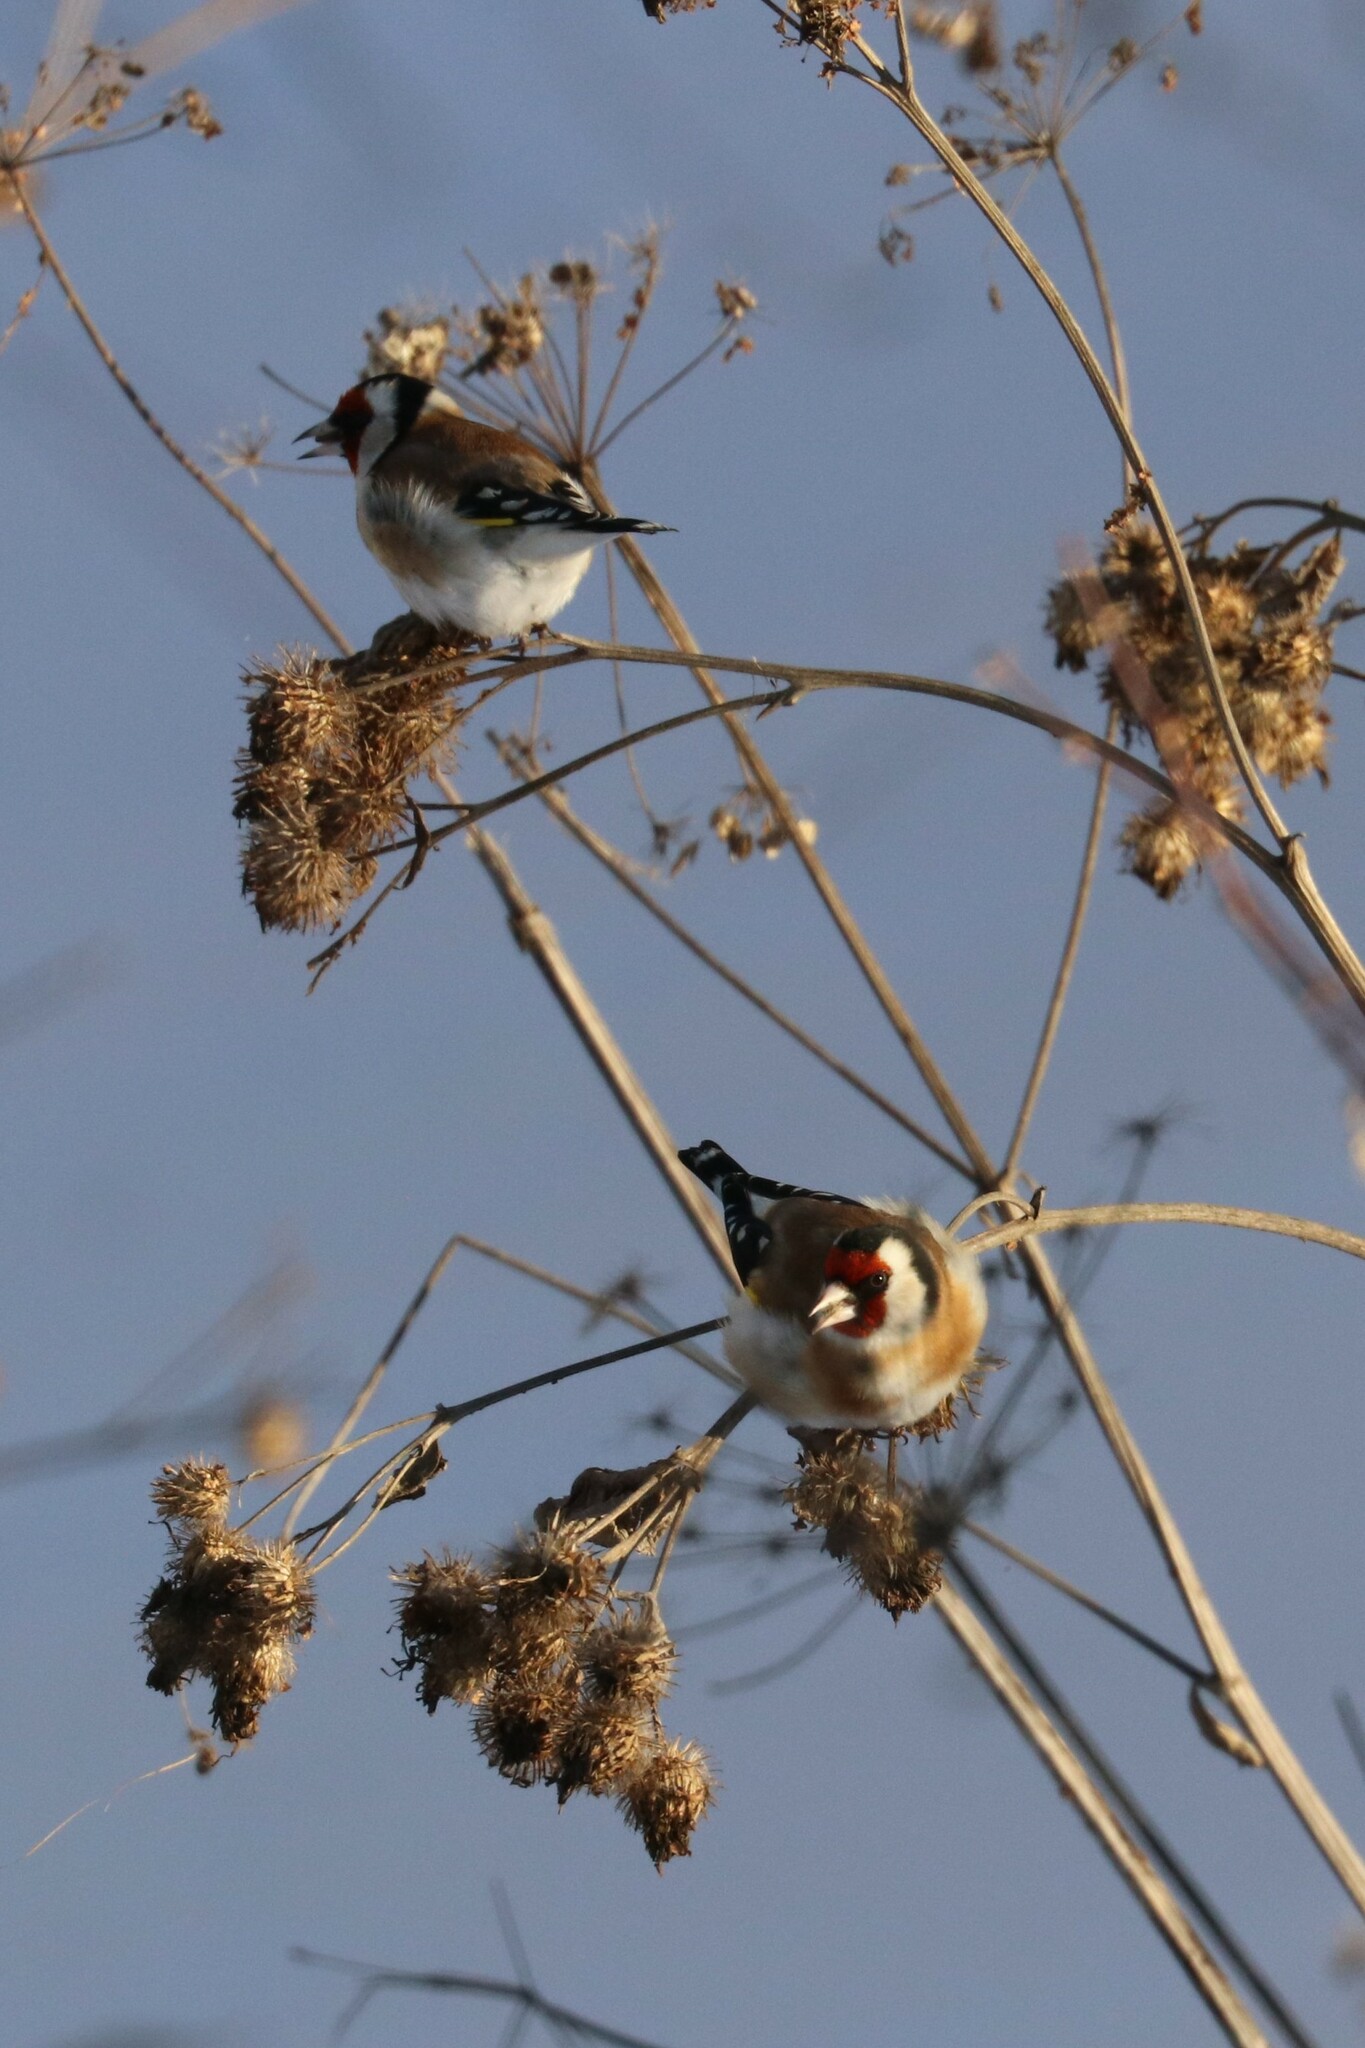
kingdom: Animalia
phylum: Chordata
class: Aves
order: Passeriformes
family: Fringillidae
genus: Carduelis
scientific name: Carduelis carduelis
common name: European goldfinch
